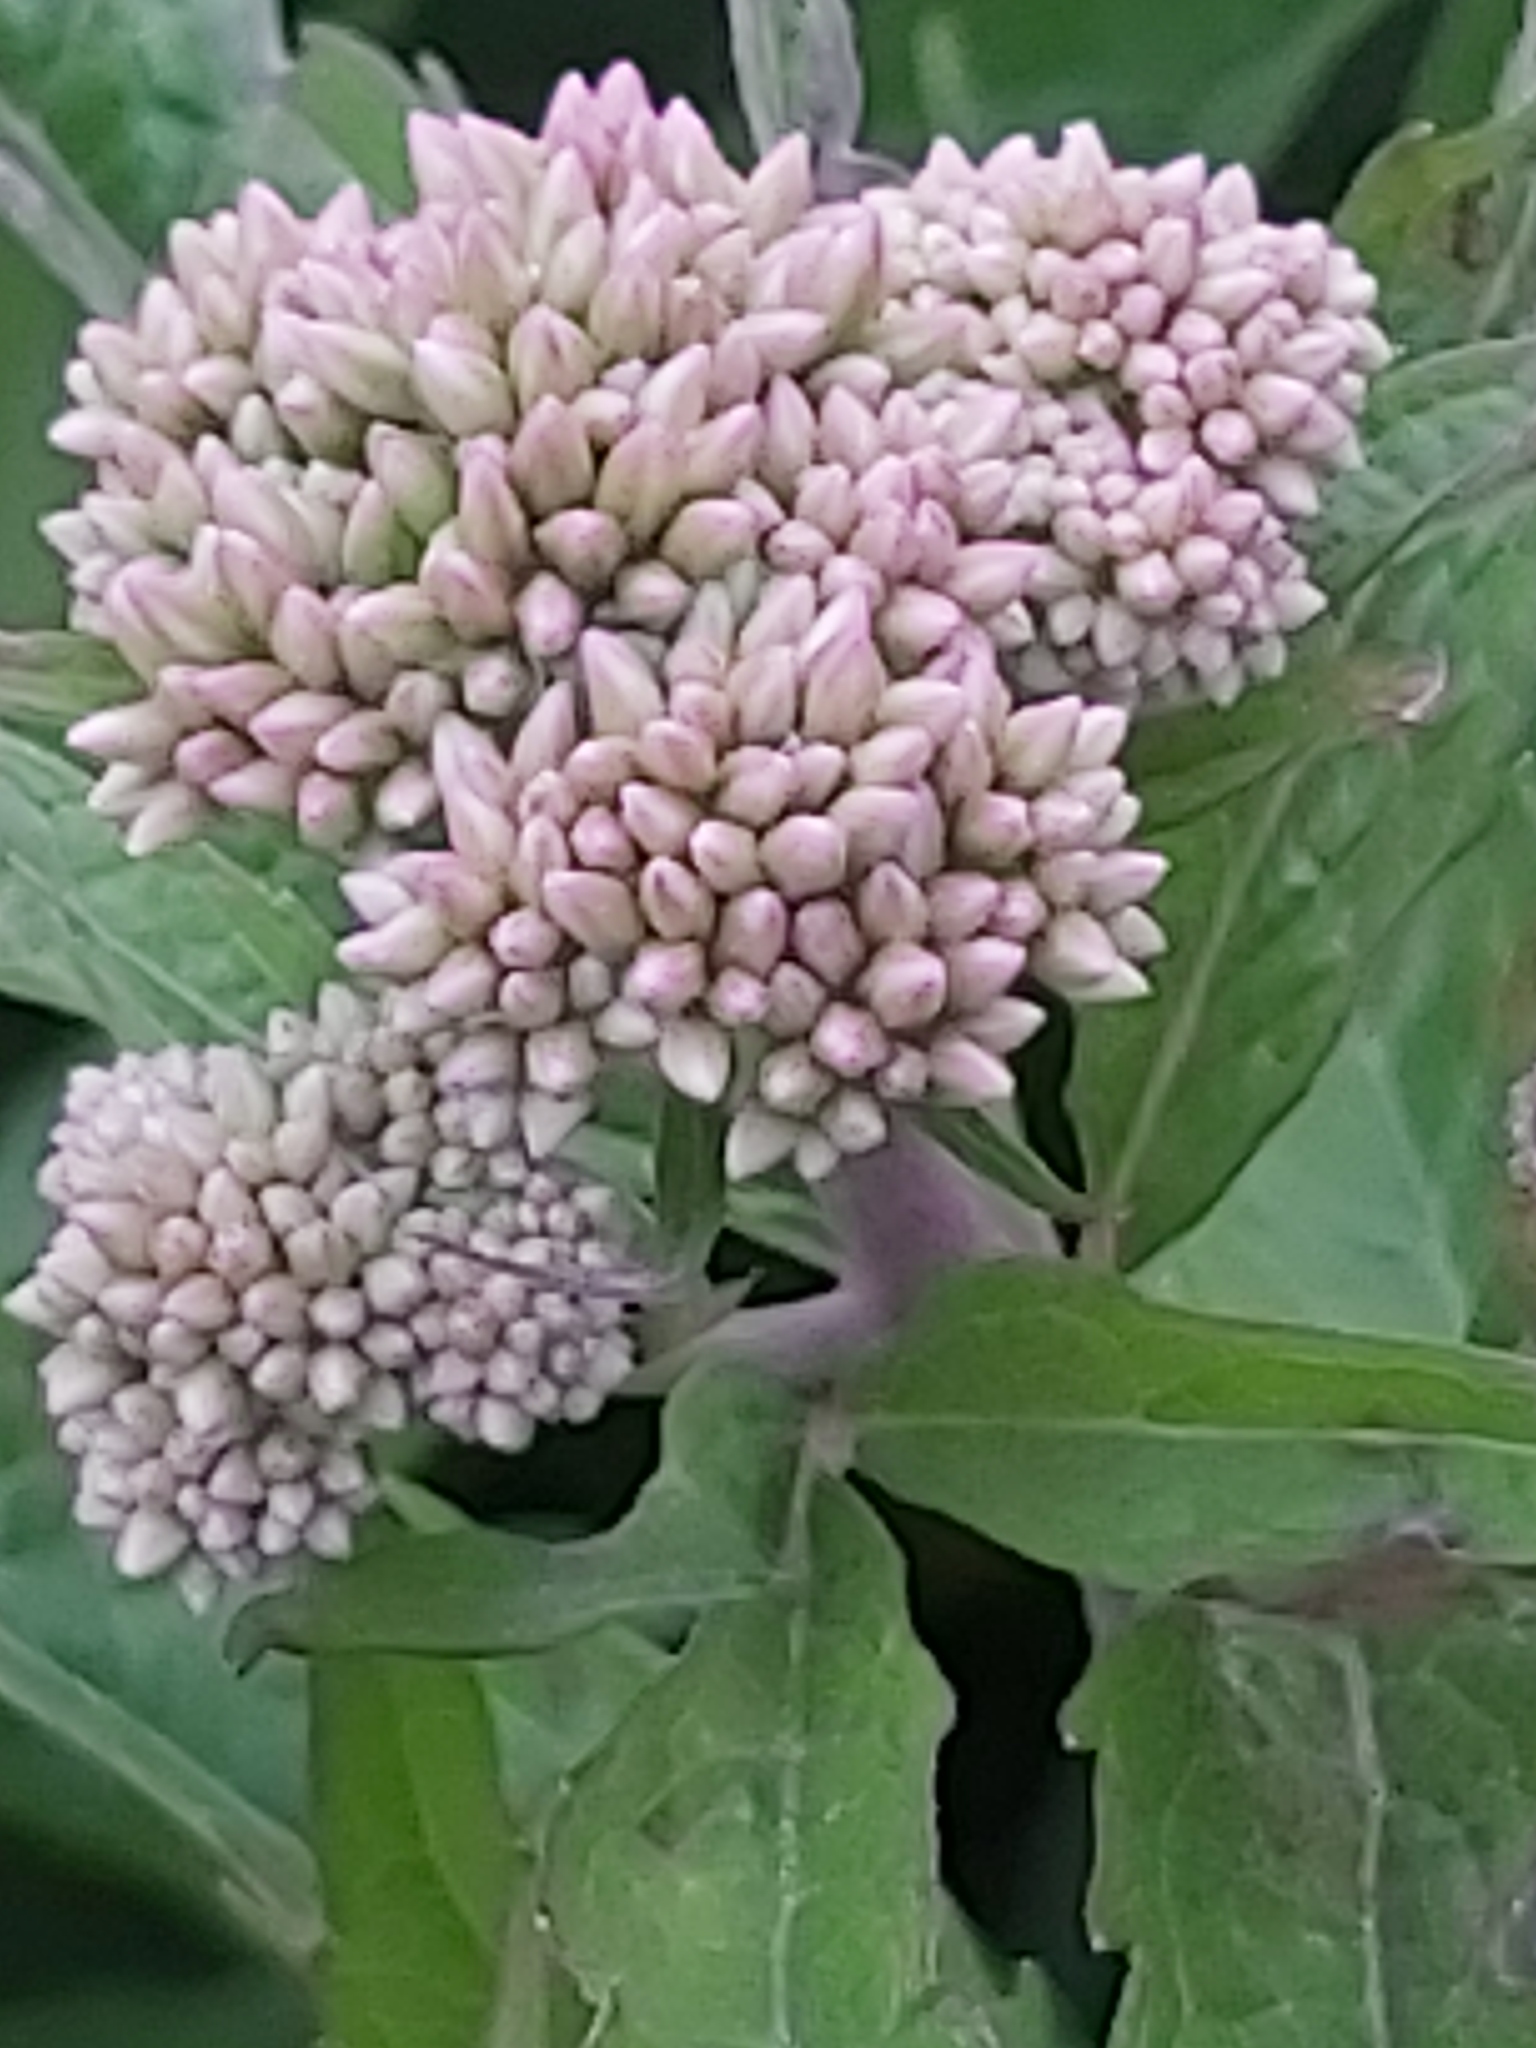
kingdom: Plantae
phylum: Tracheophyta
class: Magnoliopsida
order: Asterales
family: Asteraceae
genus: Eupatorium
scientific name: Eupatorium cannabinum
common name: Hemp-agrimony
